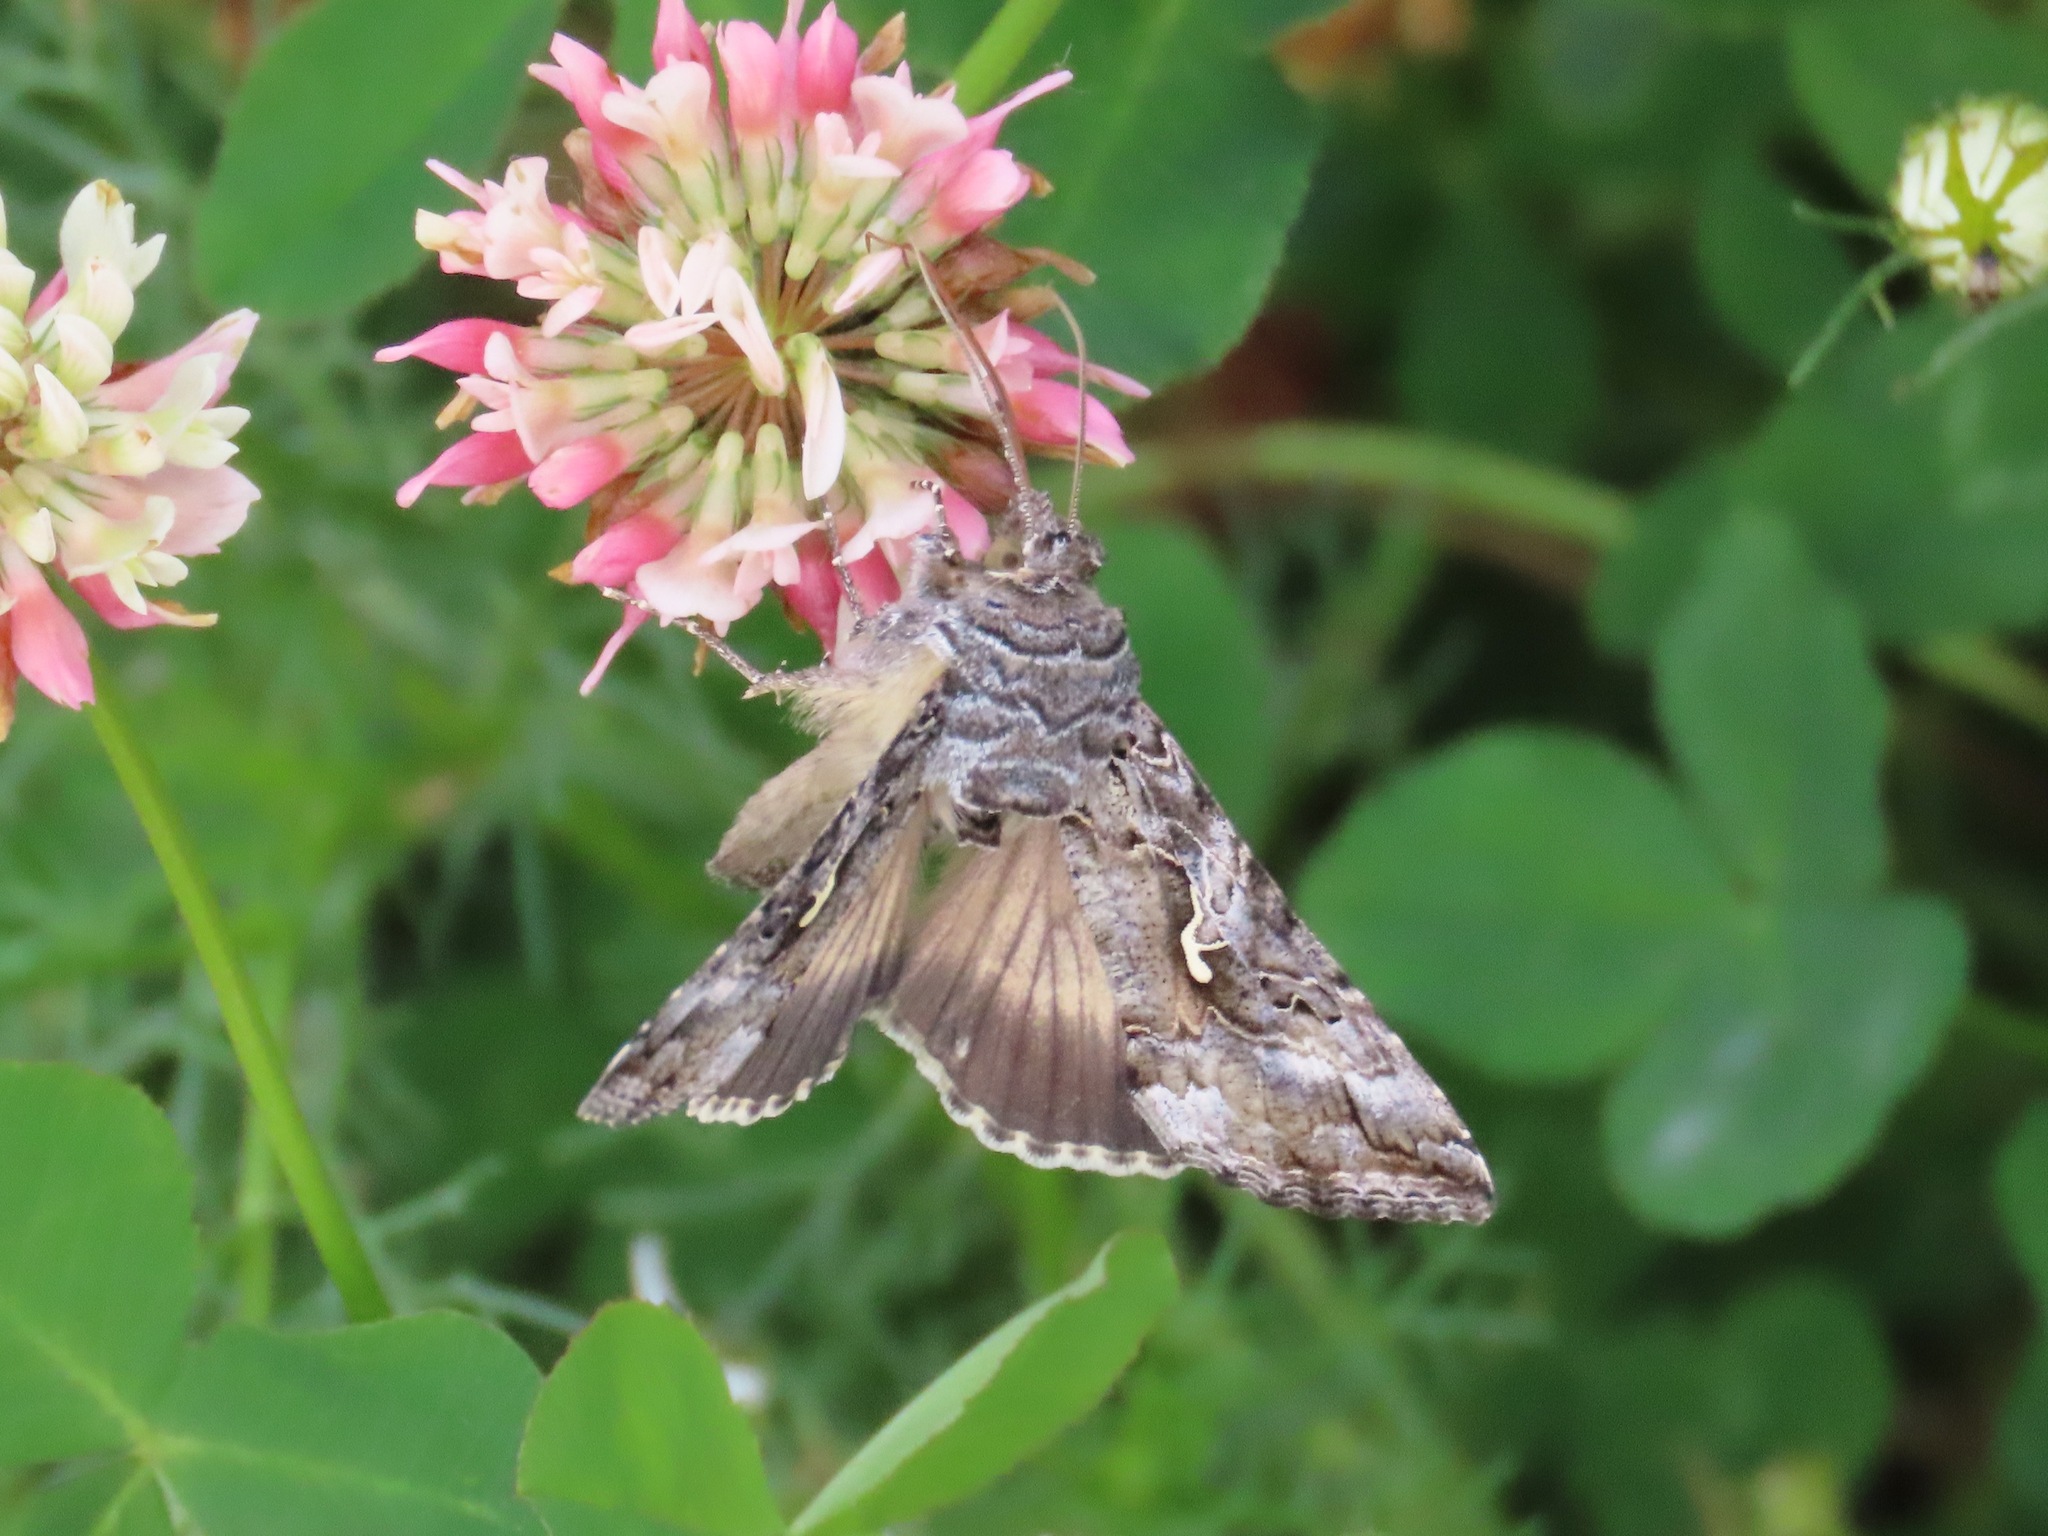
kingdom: Animalia
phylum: Arthropoda
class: Insecta
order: Lepidoptera
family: Noctuidae
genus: Autographa
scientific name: Autographa californica
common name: Alfalfa looper
